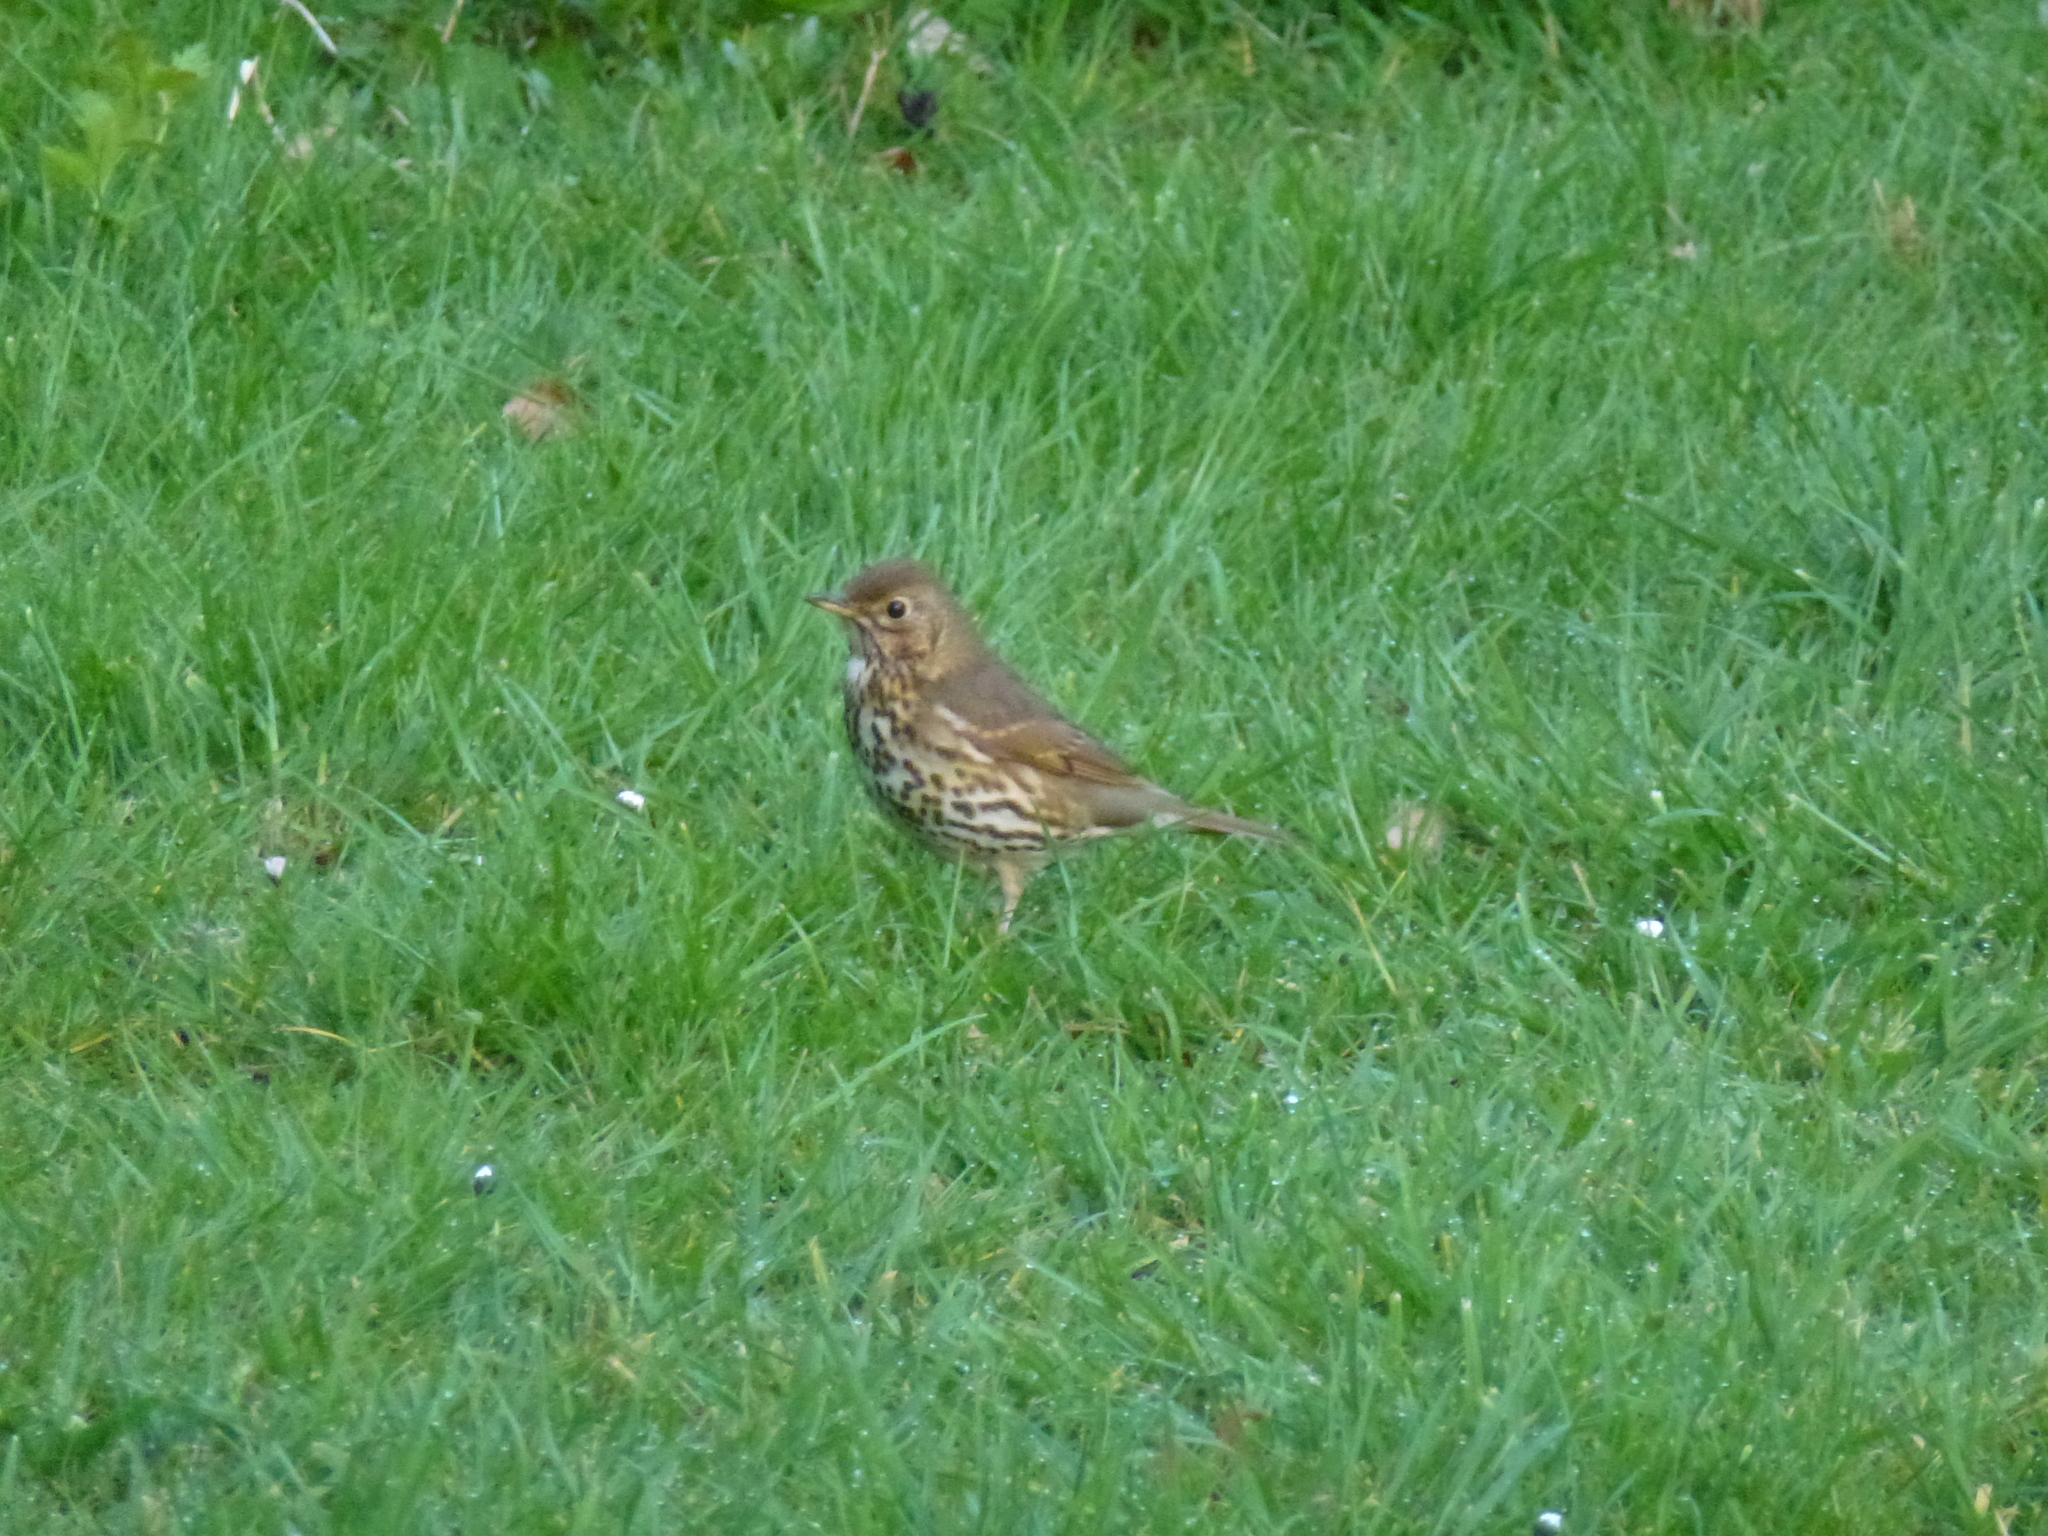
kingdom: Animalia
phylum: Chordata
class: Aves
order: Passeriformes
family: Turdidae
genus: Turdus
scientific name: Turdus philomelos
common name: Song thrush
